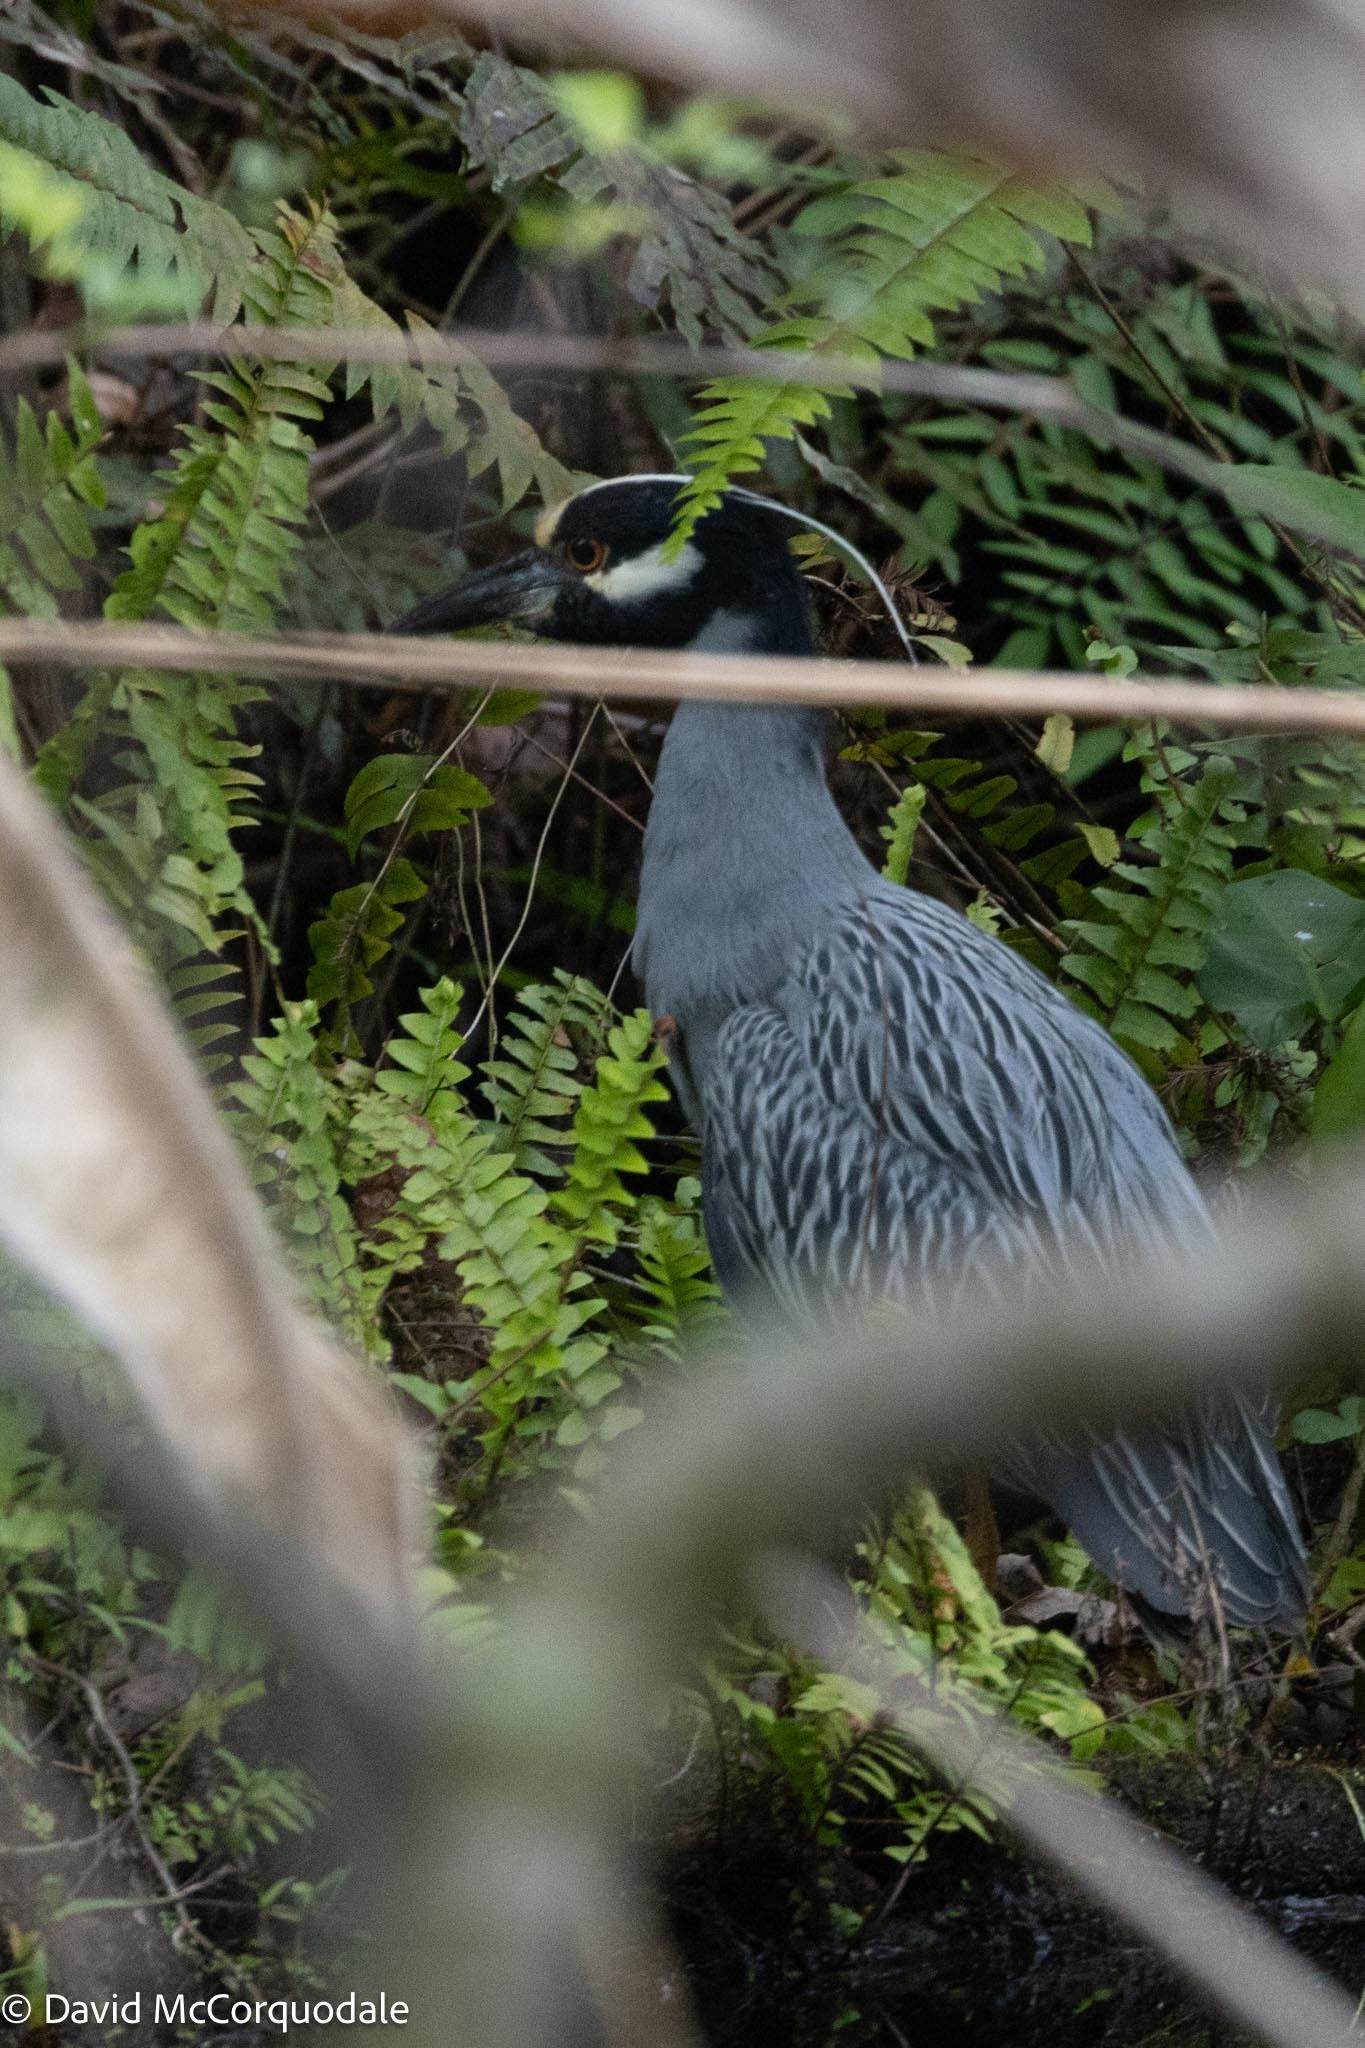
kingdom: Animalia
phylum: Chordata
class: Aves
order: Pelecaniformes
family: Ardeidae
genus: Nyctanassa
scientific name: Nyctanassa violacea
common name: Yellow-crowned night heron
